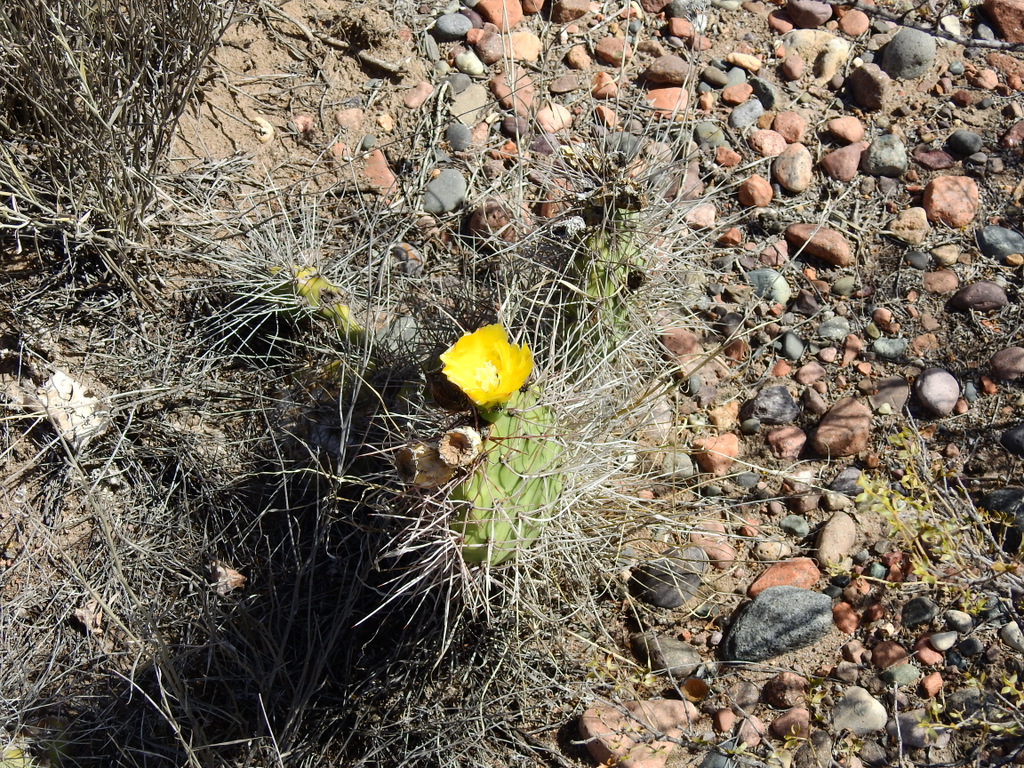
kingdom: Plantae
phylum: Tracheophyta
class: Magnoliopsida
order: Caryophyllales
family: Cactaceae
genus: Opuntia
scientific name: Opuntia sulphurea
